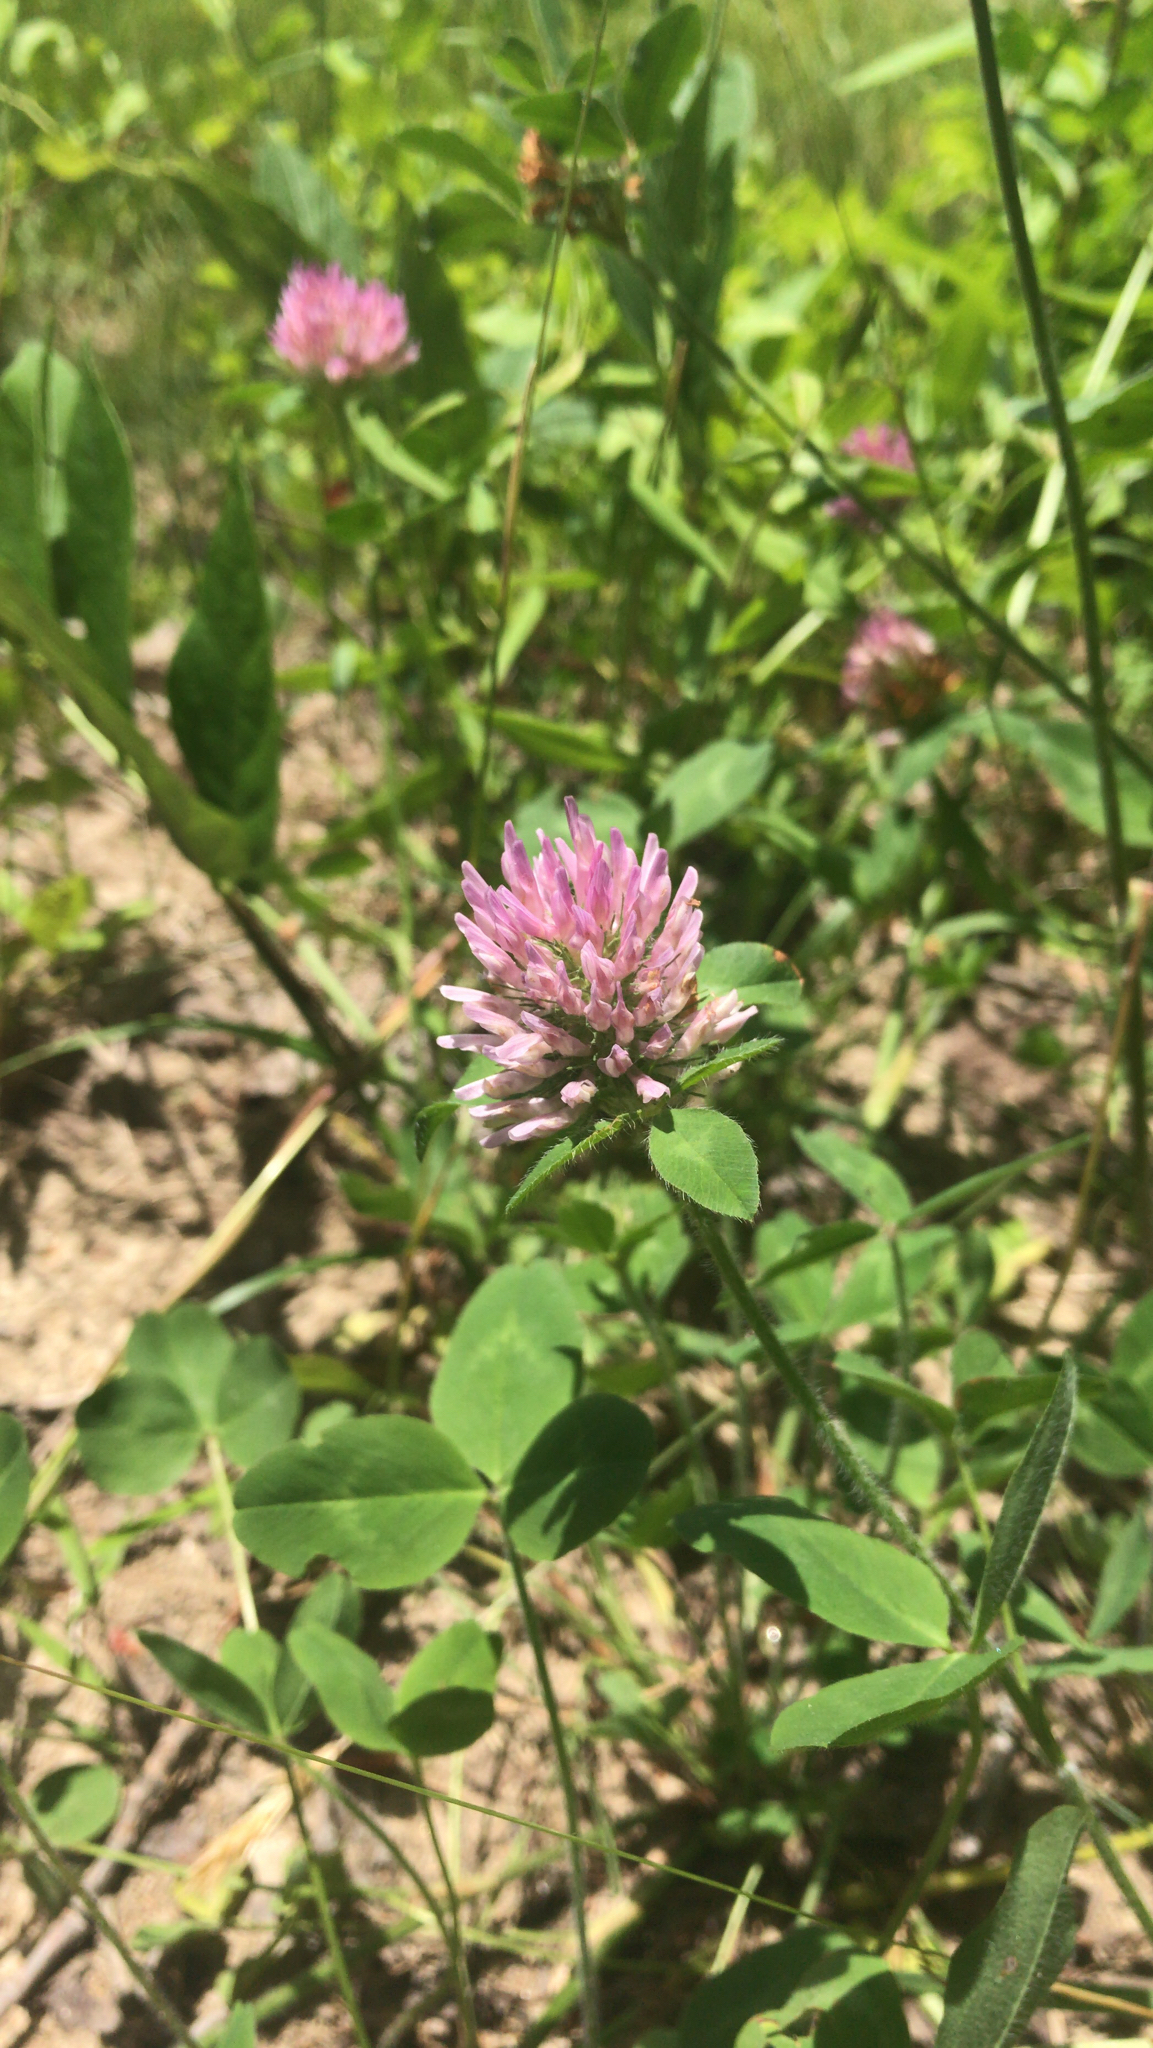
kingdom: Plantae
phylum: Tracheophyta
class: Magnoliopsida
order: Fabales
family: Fabaceae
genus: Trifolium
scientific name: Trifolium pratense
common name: Red clover
